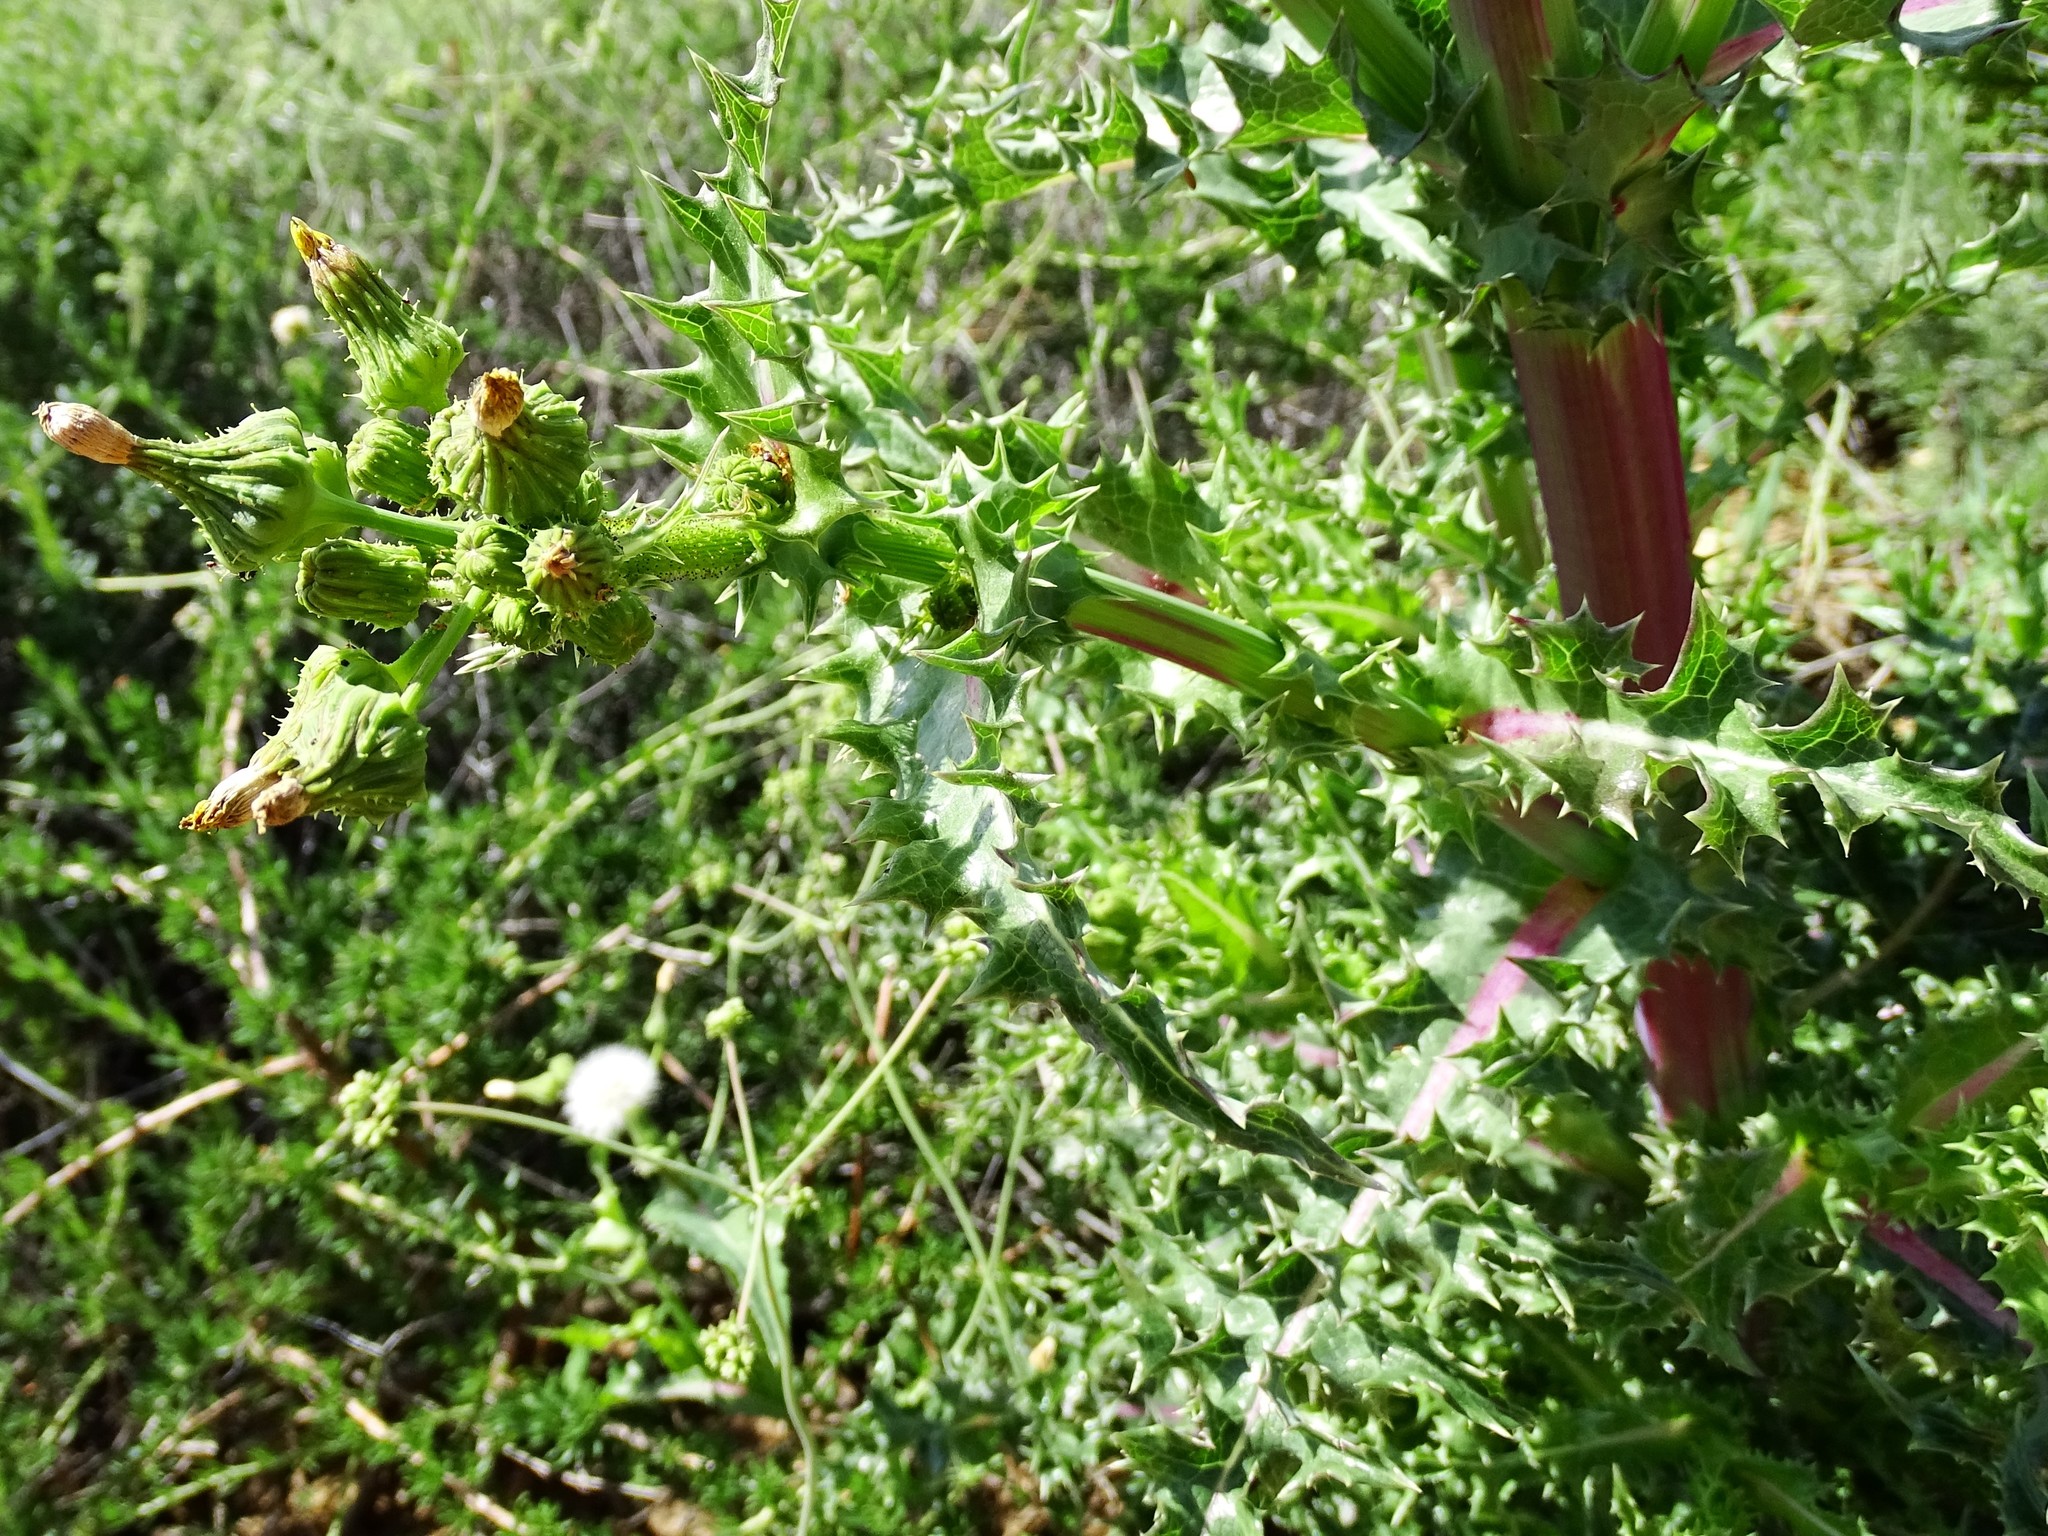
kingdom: Plantae
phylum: Tracheophyta
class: Magnoliopsida
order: Asterales
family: Asteraceae
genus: Sonchus
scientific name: Sonchus asper
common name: Prickly sow-thistle
